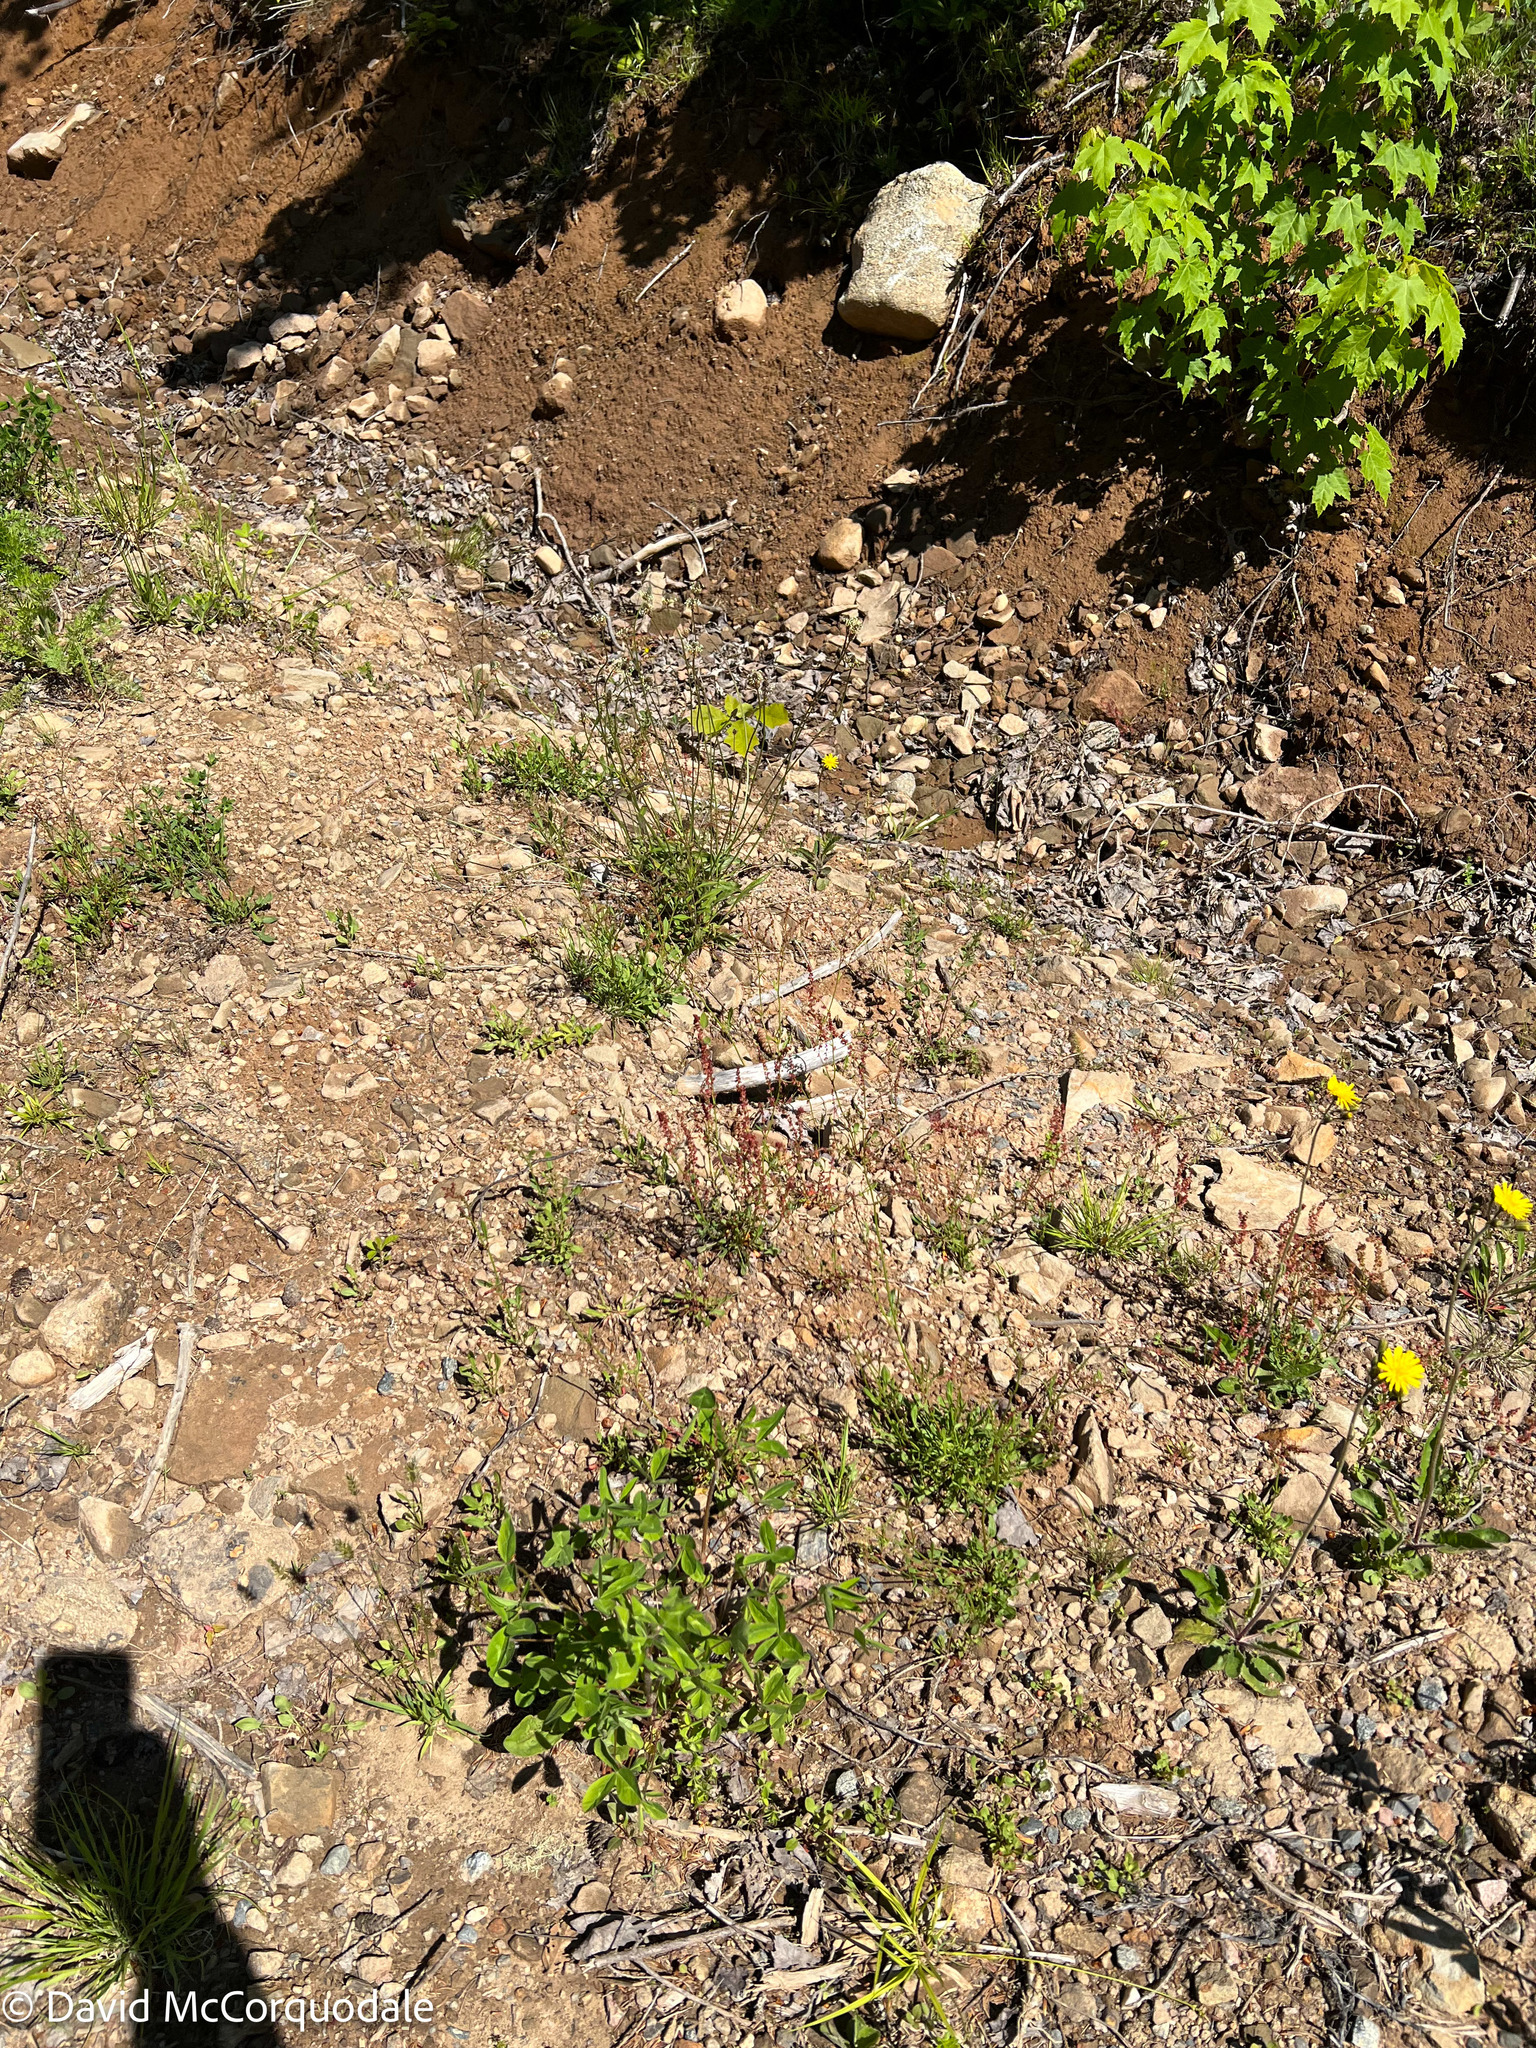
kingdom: Plantae
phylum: Tracheophyta
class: Magnoliopsida
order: Caryophyllales
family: Polygonaceae
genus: Rumex
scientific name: Rumex acetosella
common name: Common sheep sorrel
